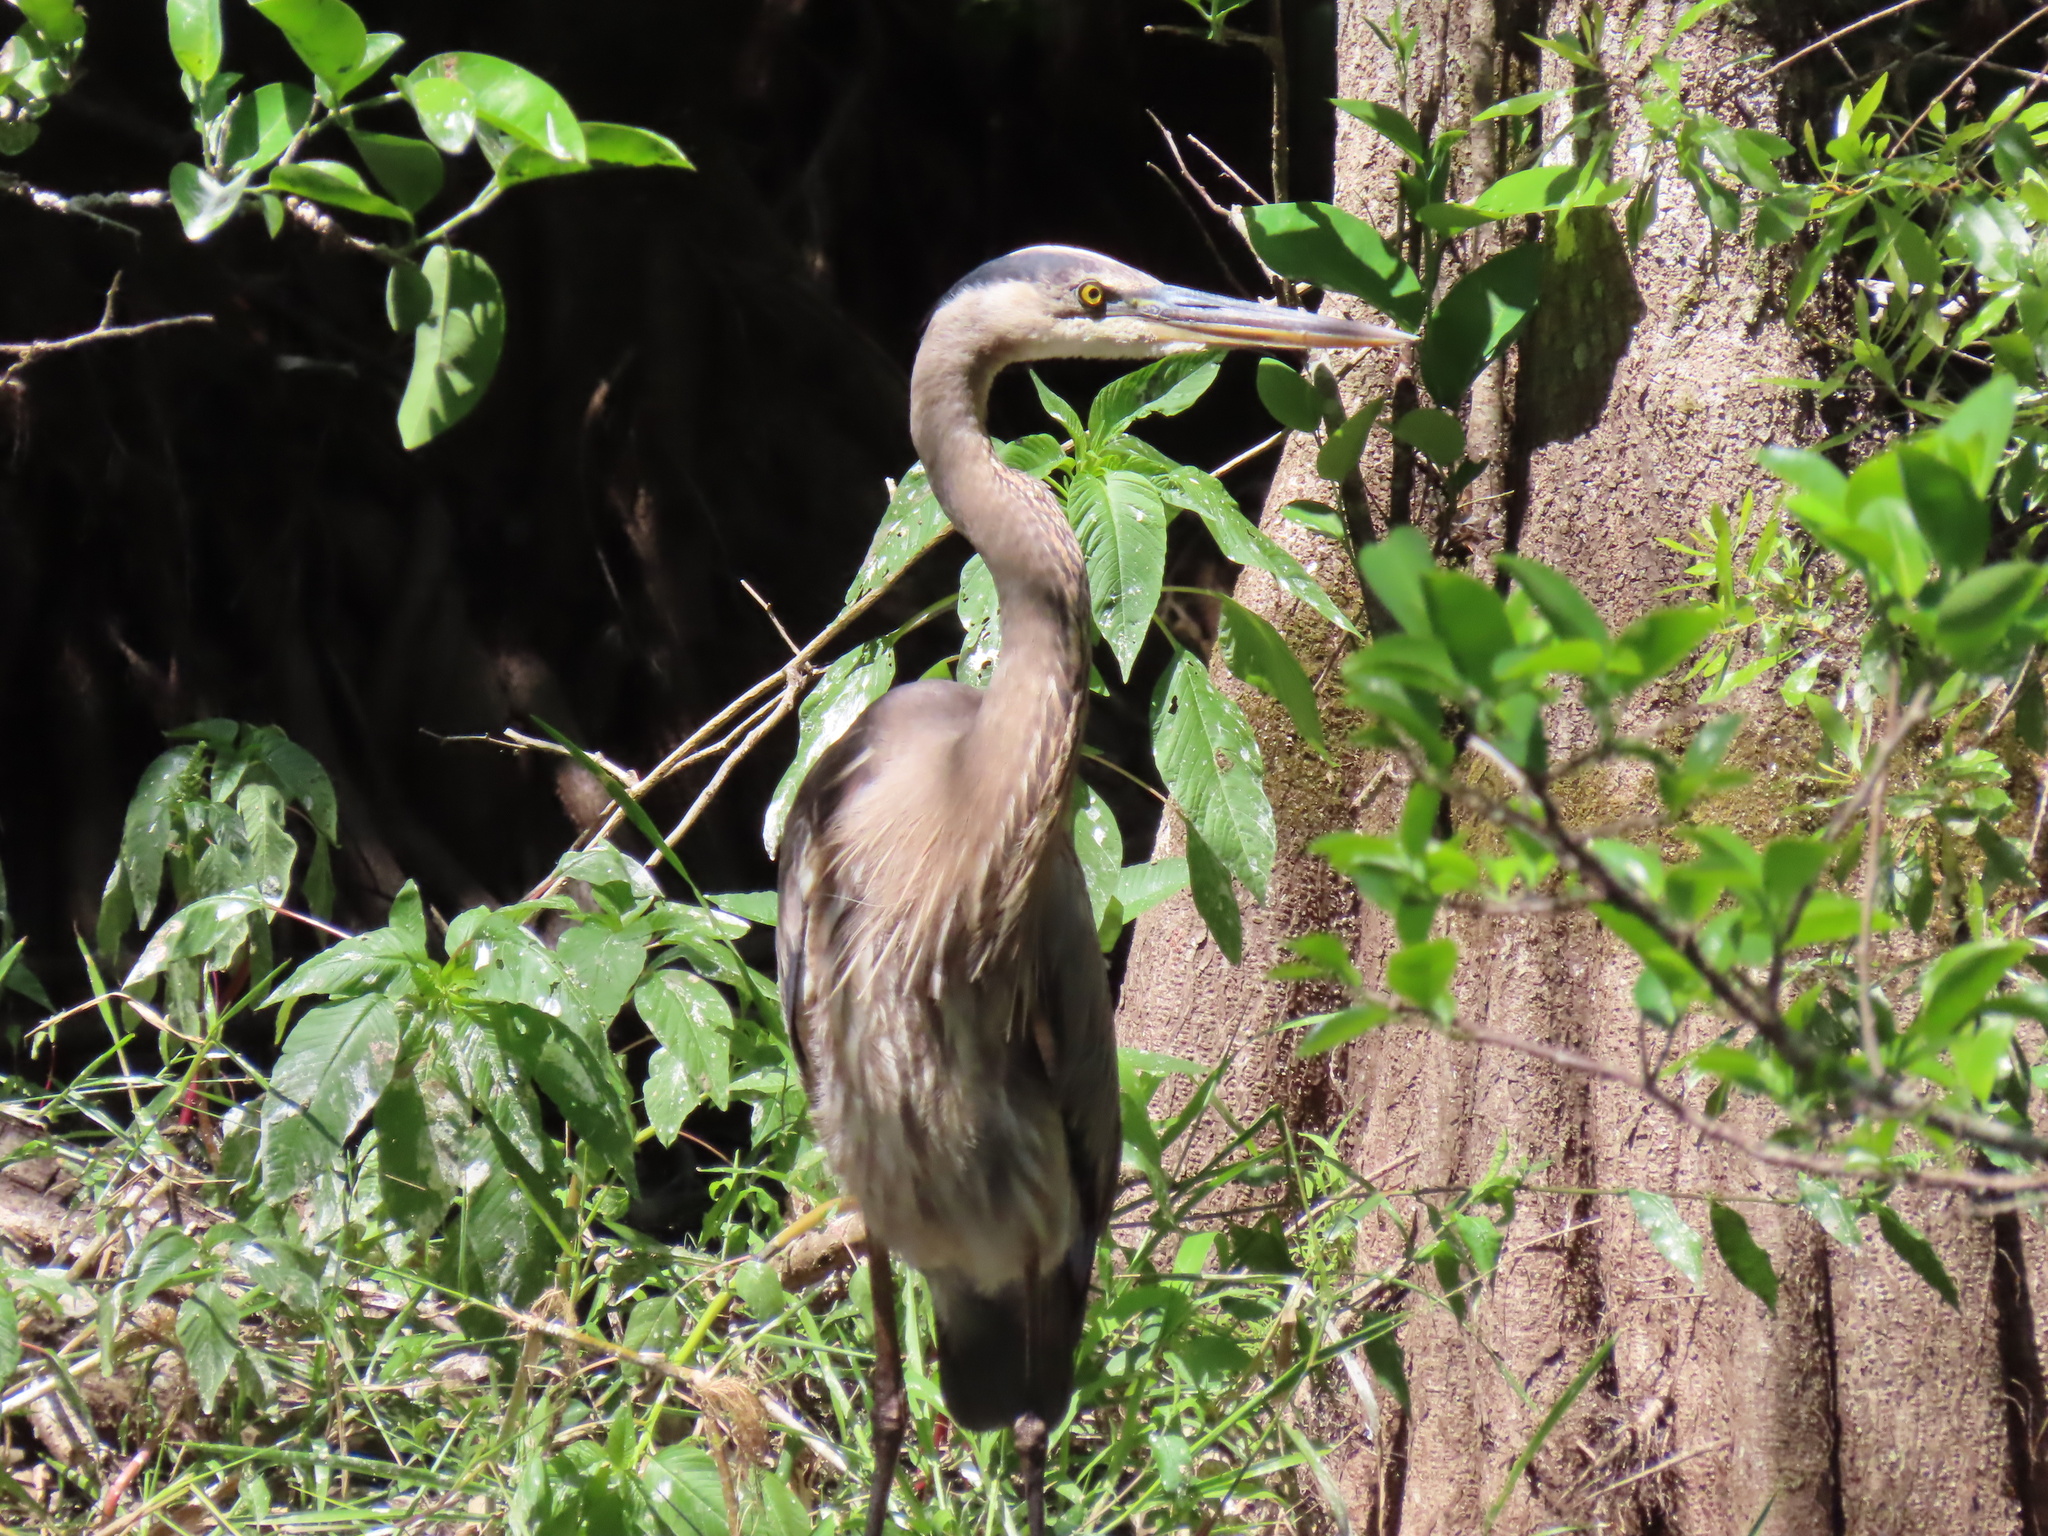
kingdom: Animalia
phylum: Chordata
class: Aves
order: Pelecaniformes
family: Ardeidae
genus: Ardea
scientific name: Ardea herodias
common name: Great blue heron
